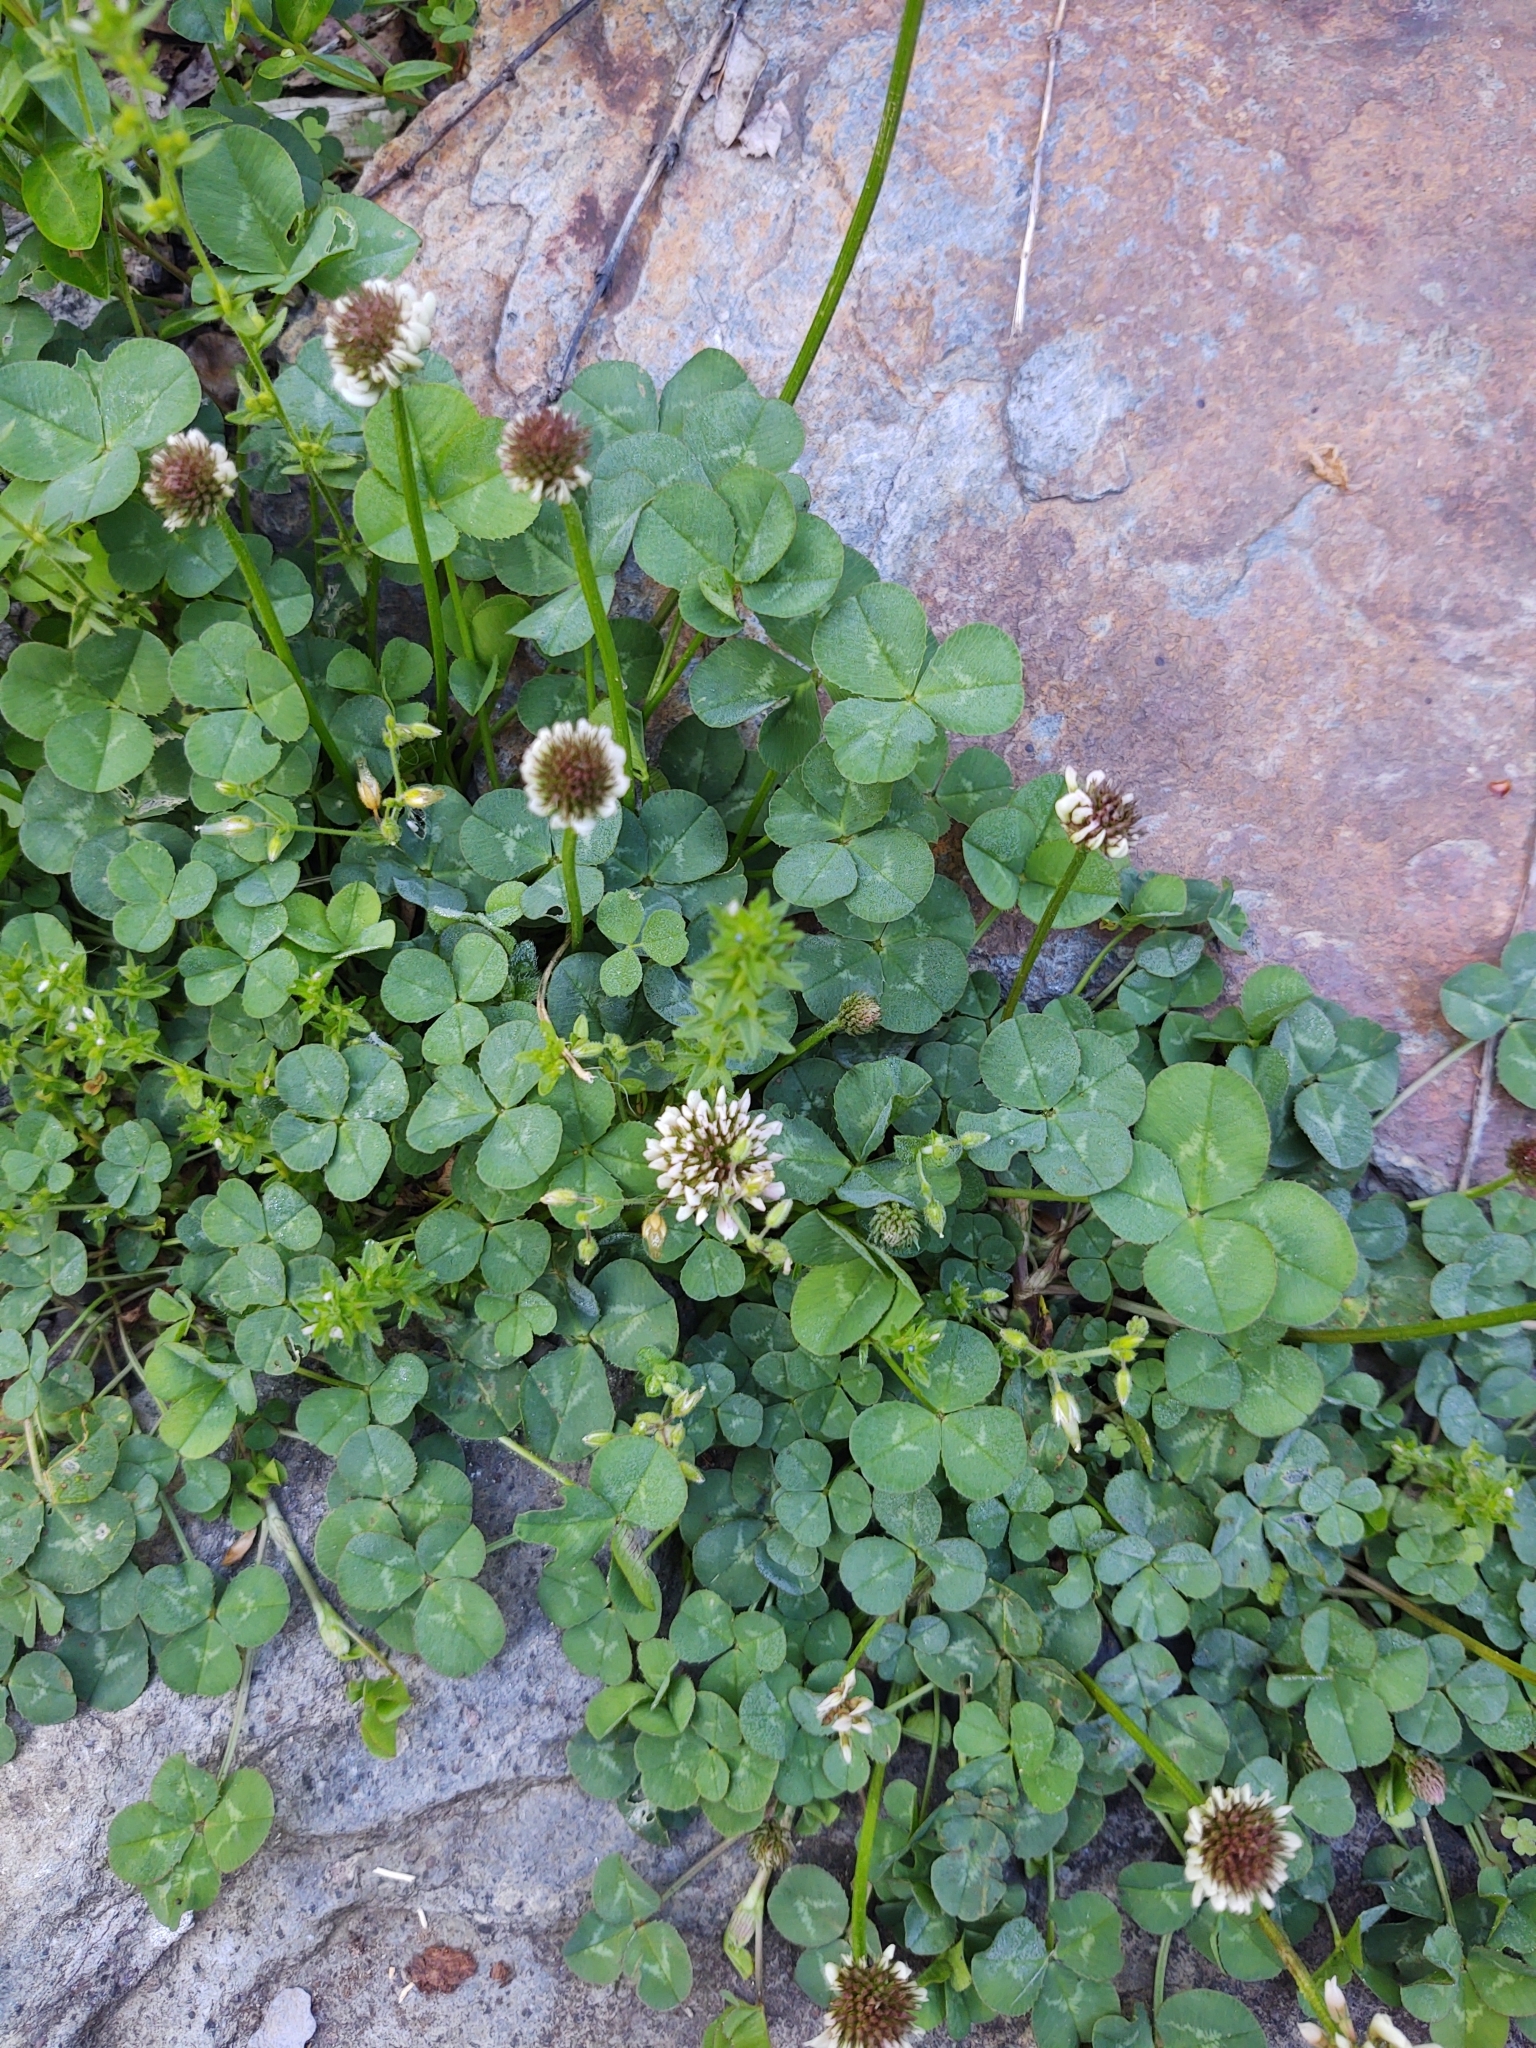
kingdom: Plantae
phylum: Tracheophyta
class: Magnoliopsida
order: Fabales
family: Fabaceae
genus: Trifolium
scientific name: Trifolium repens
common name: White clover
